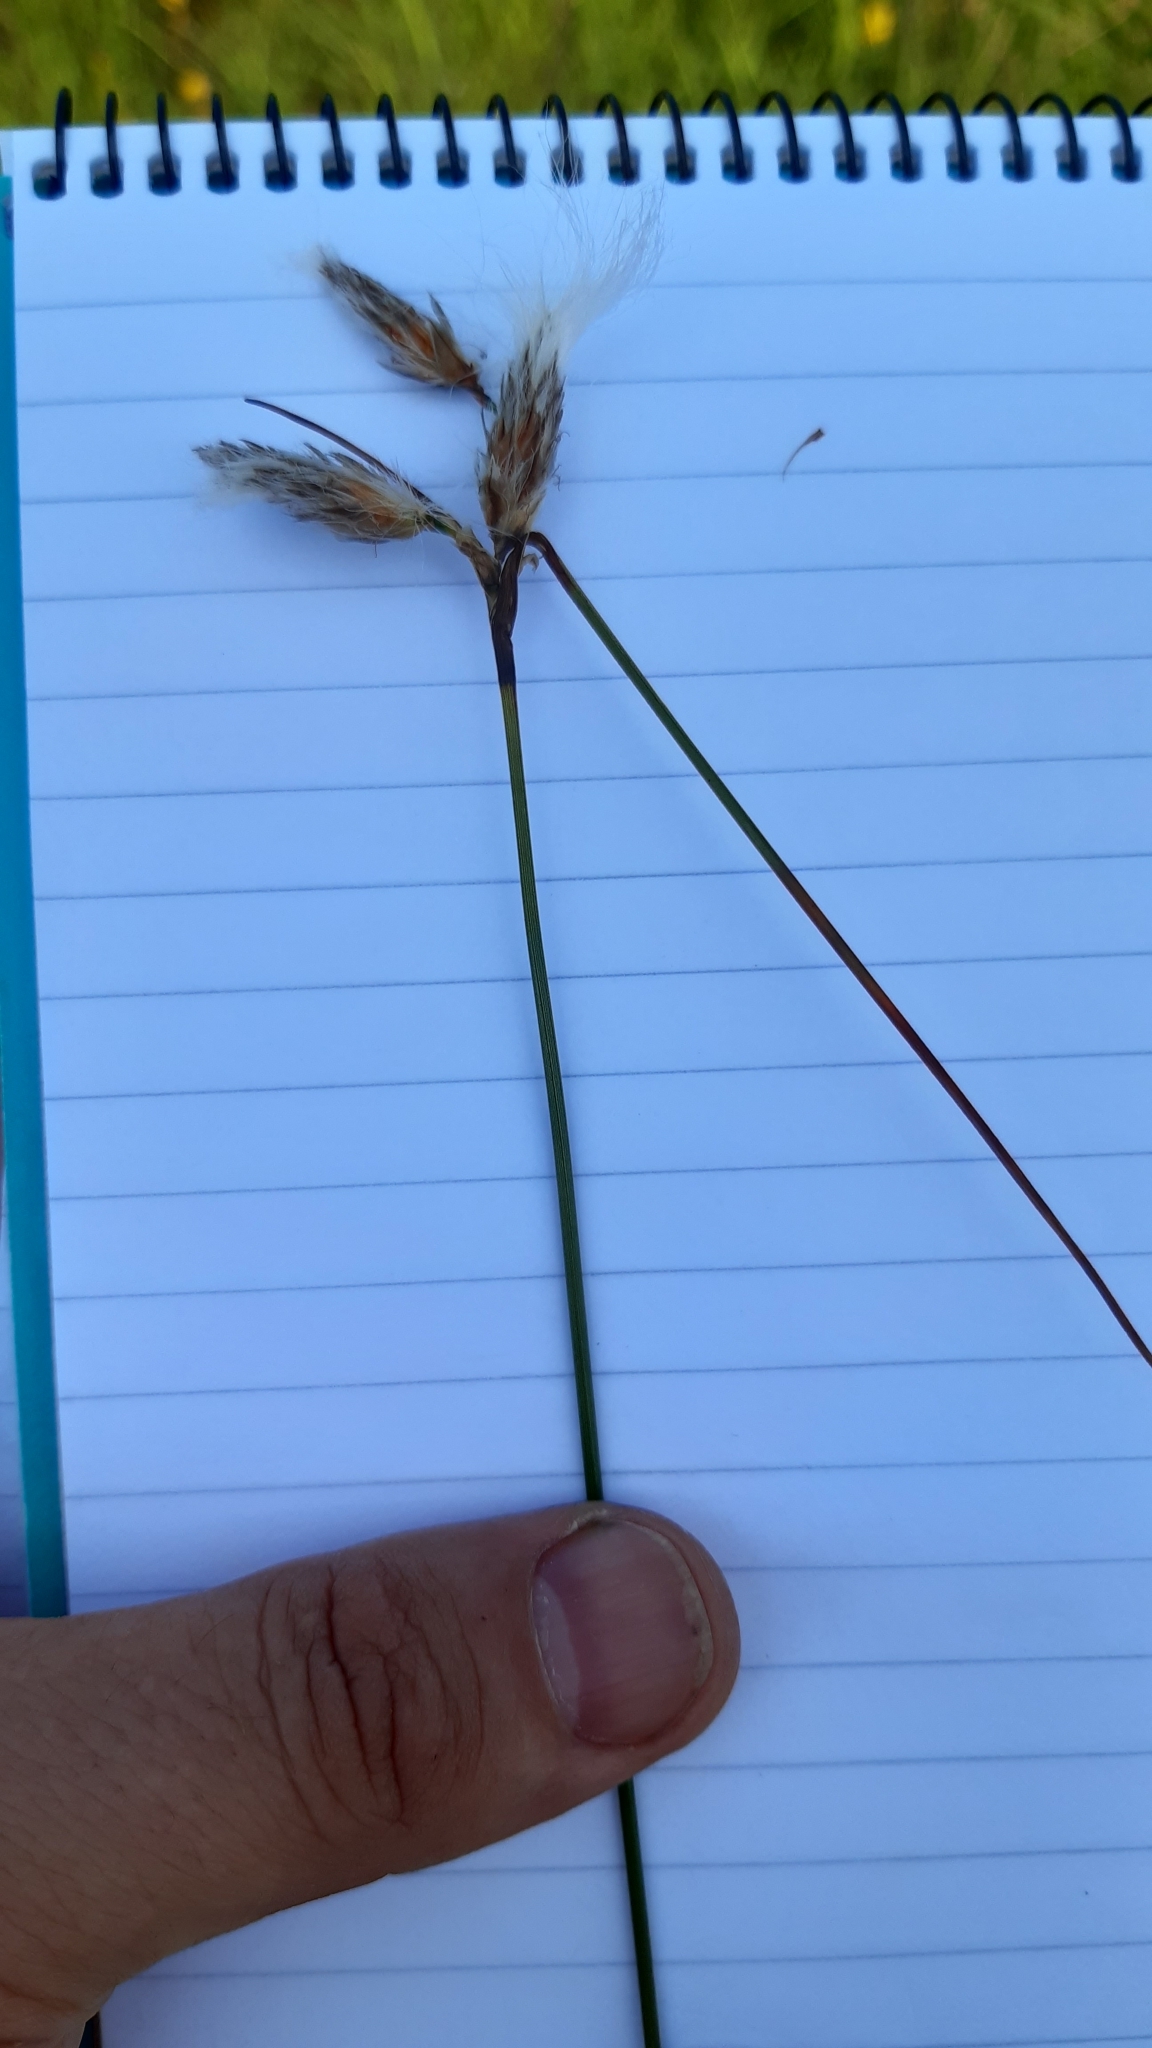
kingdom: Plantae
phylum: Tracheophyta
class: Liliopsida
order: Poales
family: Cyperaceae
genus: Eriophorum
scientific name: Eriophorum angustifolium
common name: Common cottongrass
